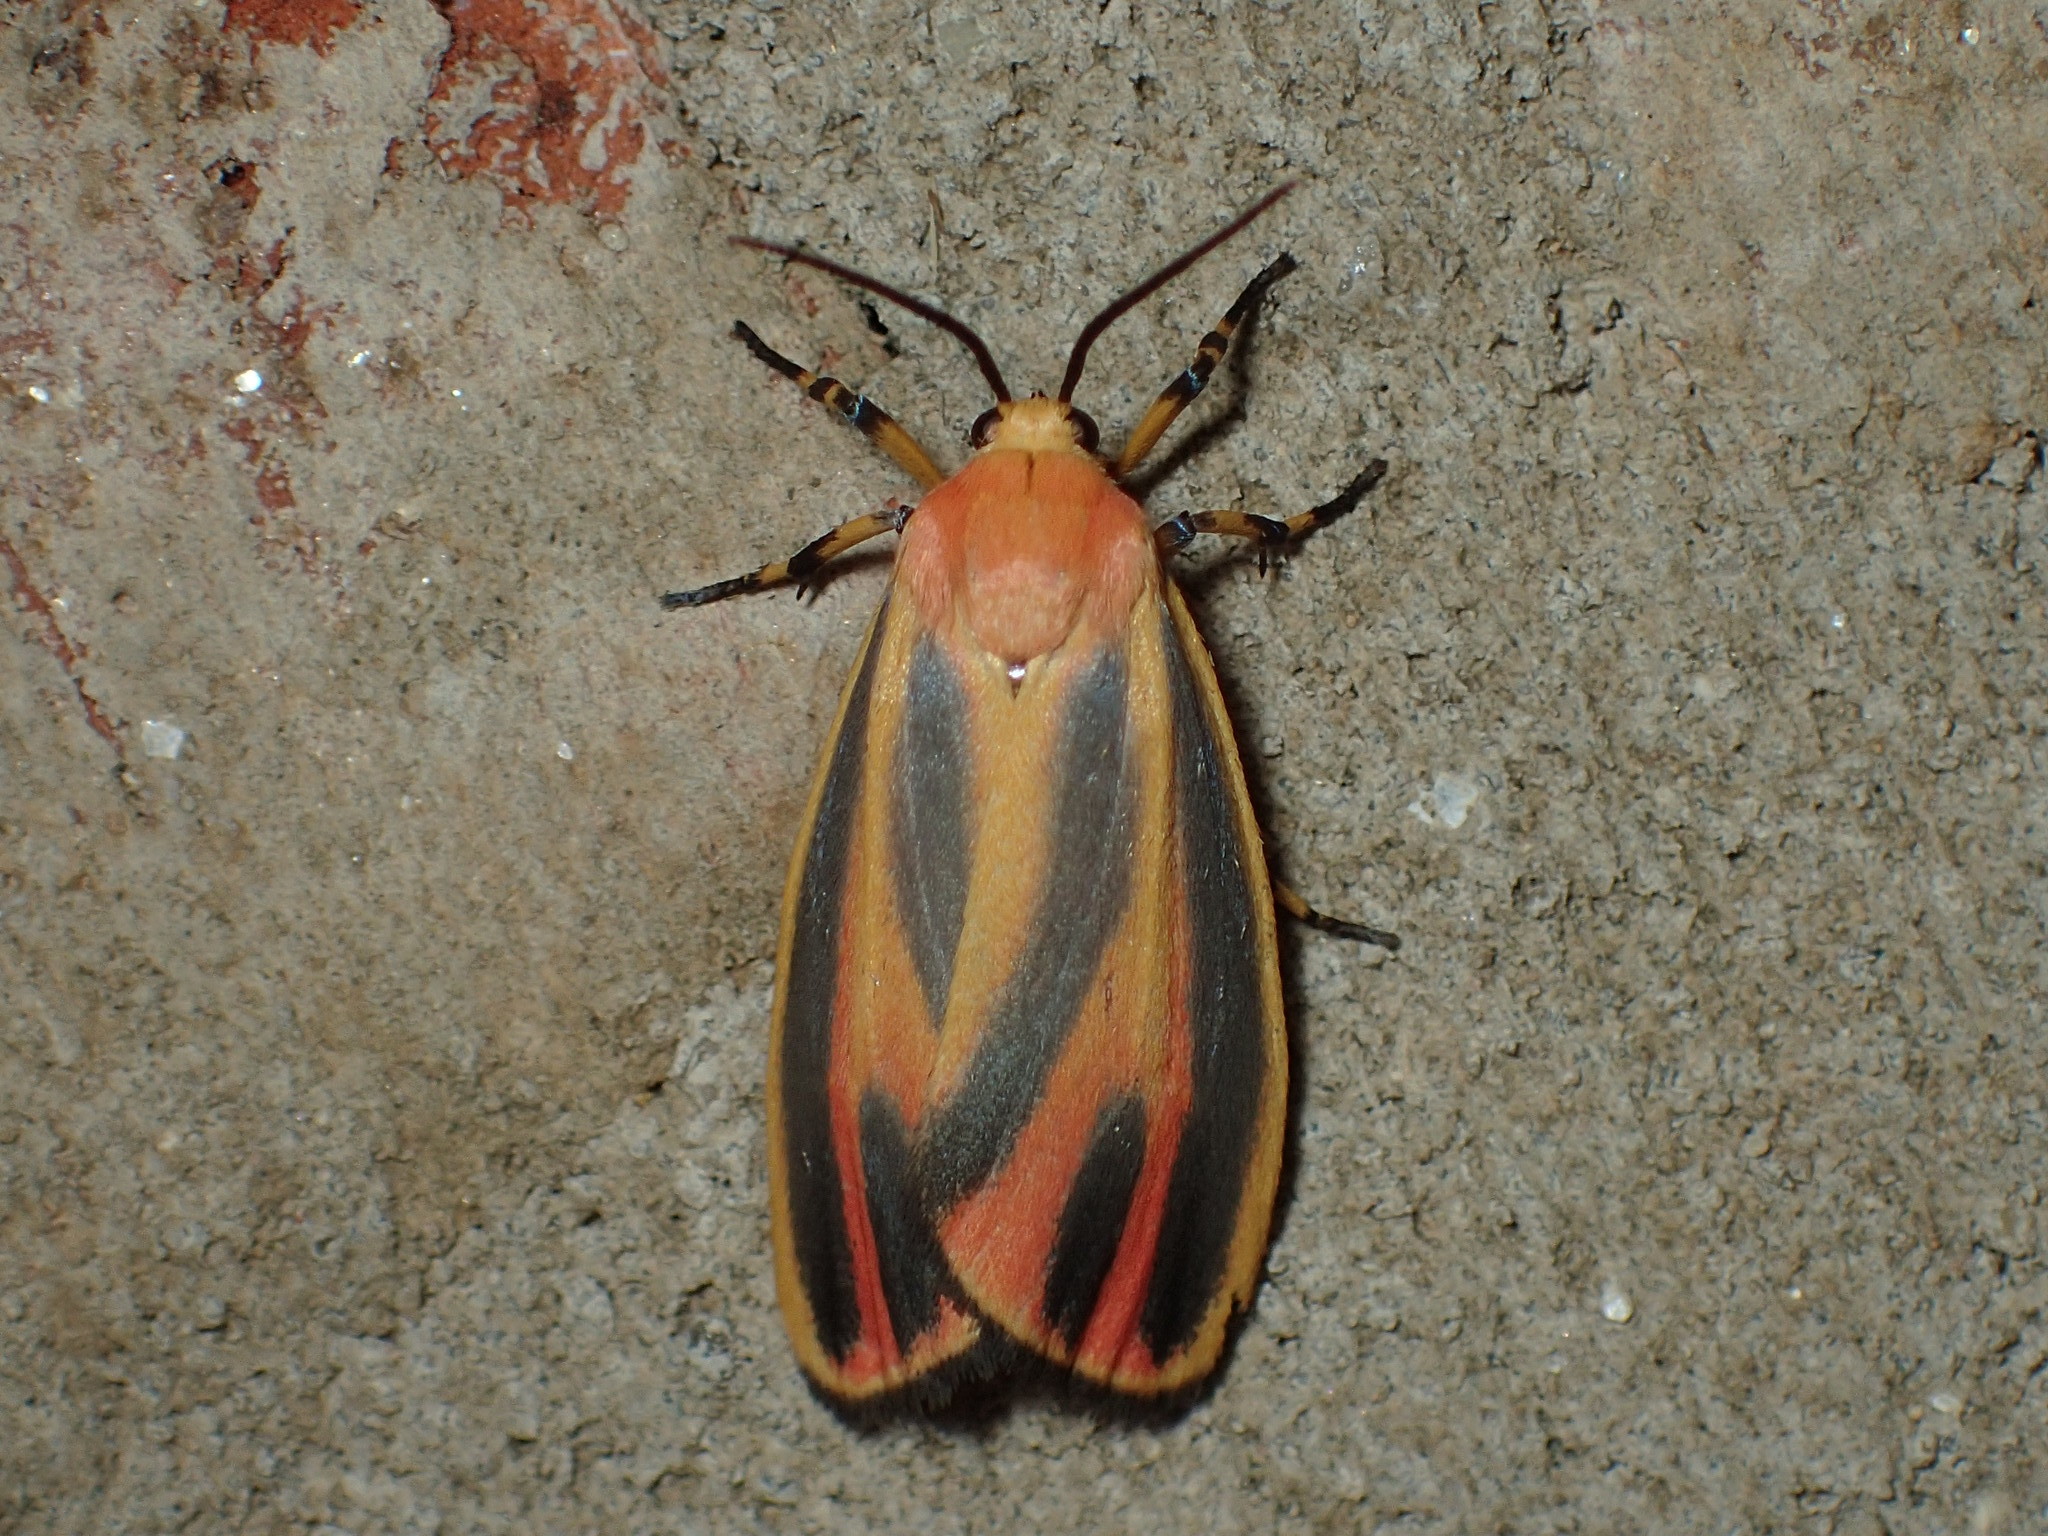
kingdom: Animalia
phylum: Arthropoda
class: Insecta
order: Lepidoptera
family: Erebidae
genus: Hypoprepia
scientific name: Hypoprepia fucosa
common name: Painted lichen moth
